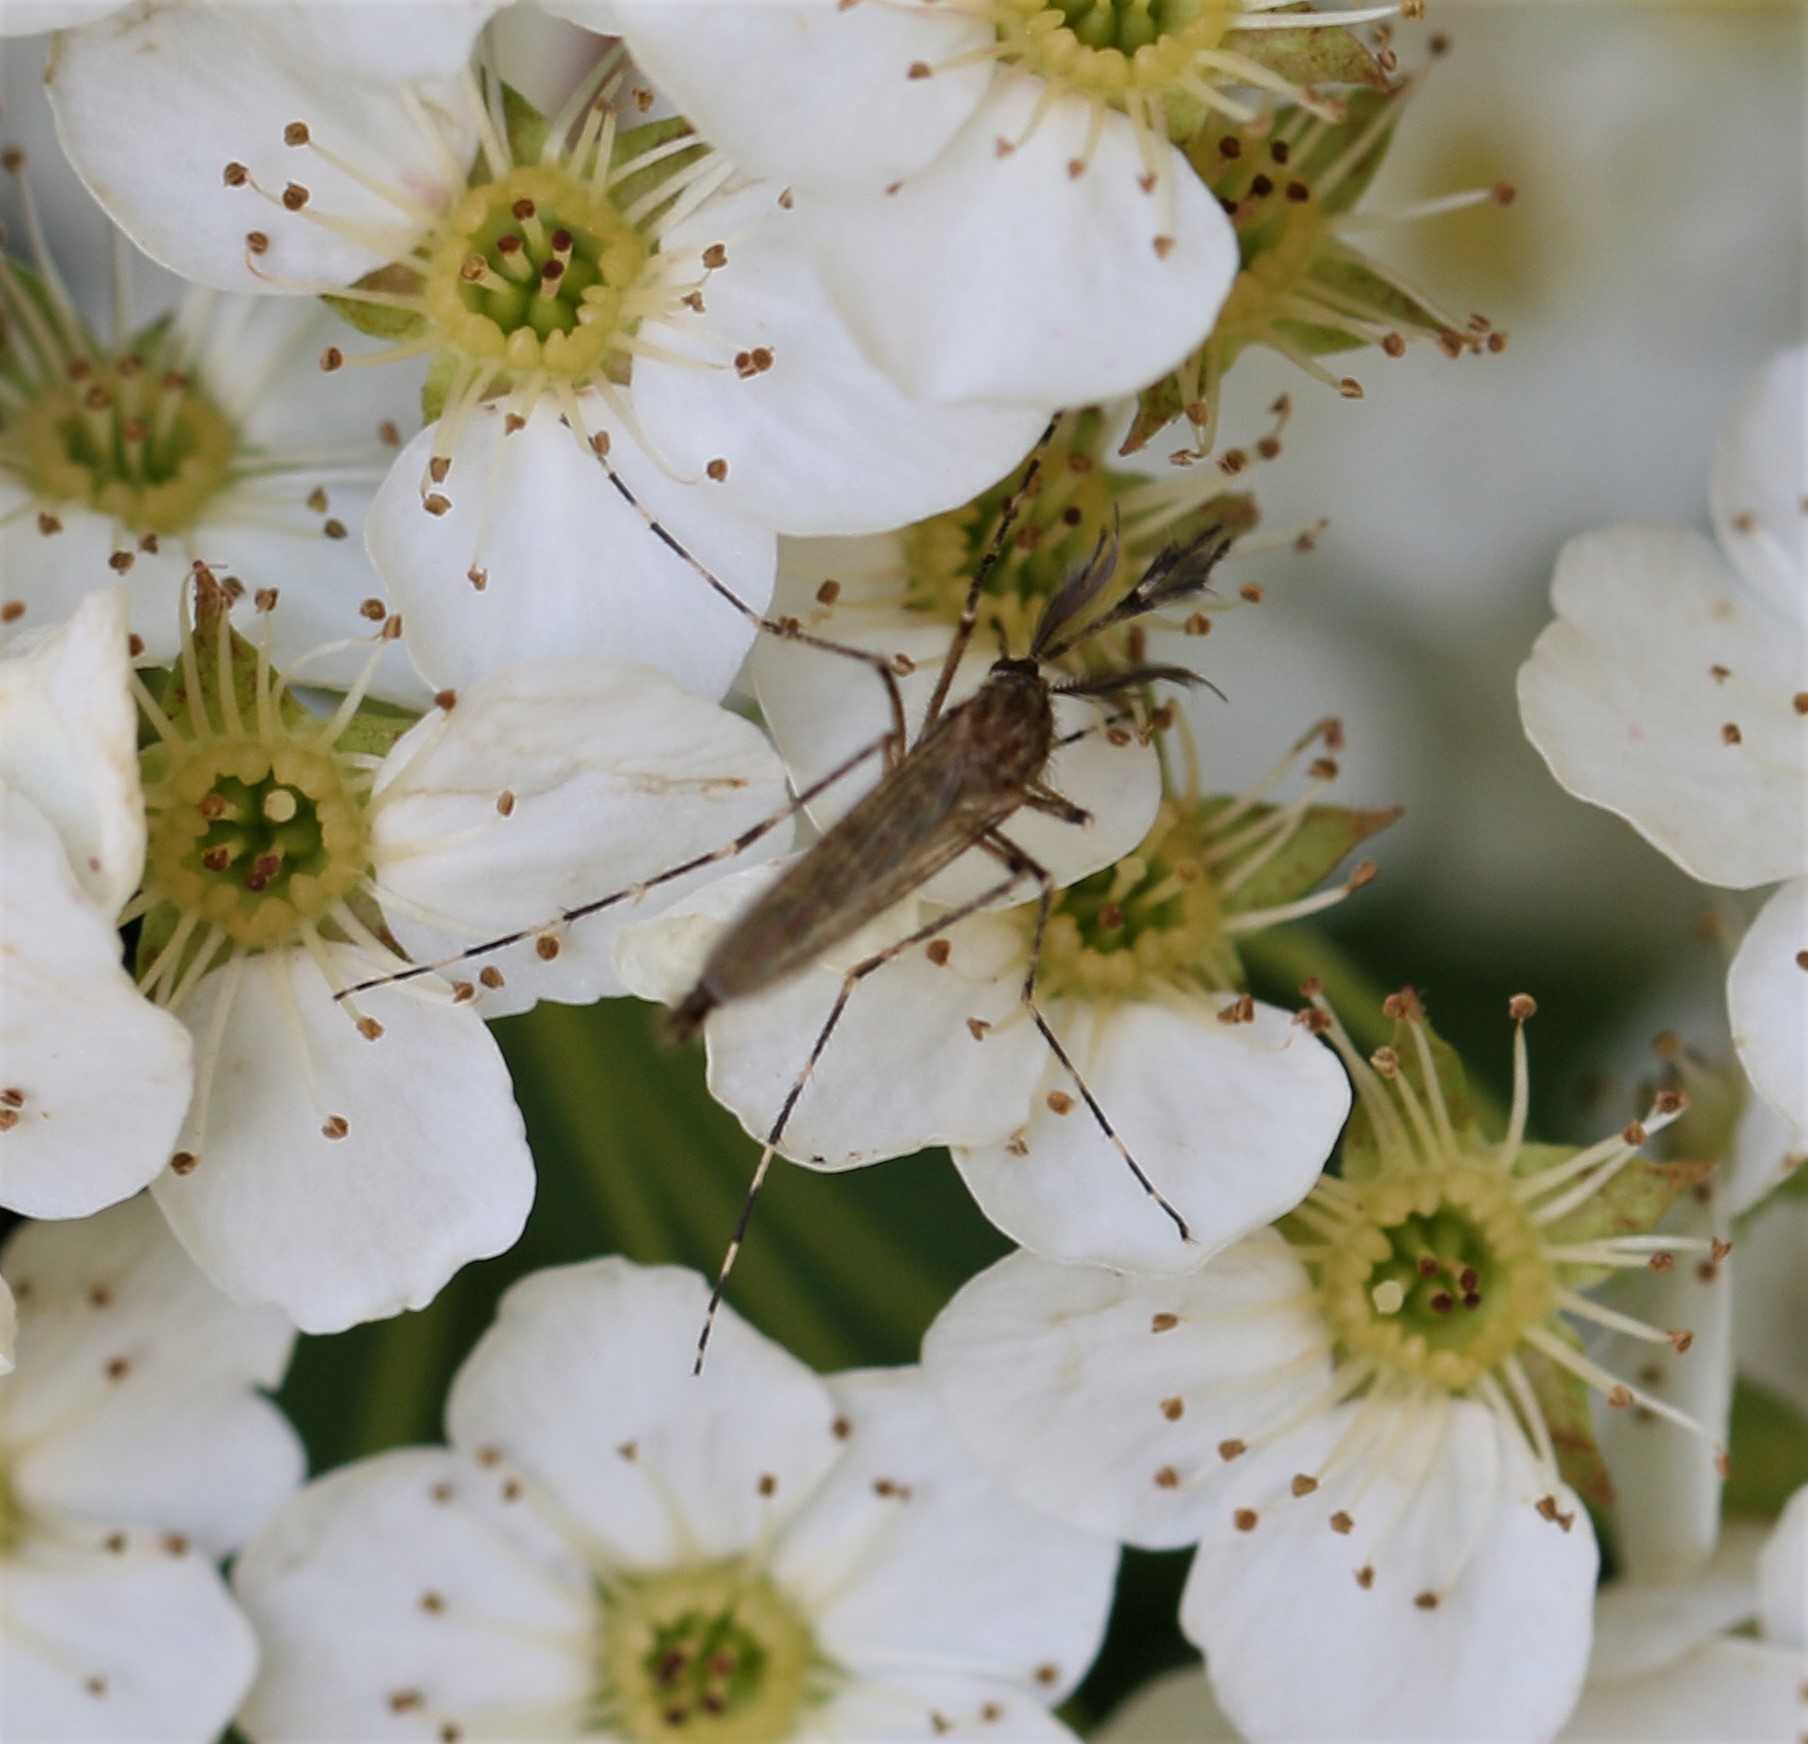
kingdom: Animalia
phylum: Arthropoda
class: Insecta
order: Diptera
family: Culicidae
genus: Coquillettidia
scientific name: Coquillettidia perturbans
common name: Cattail mosquito
